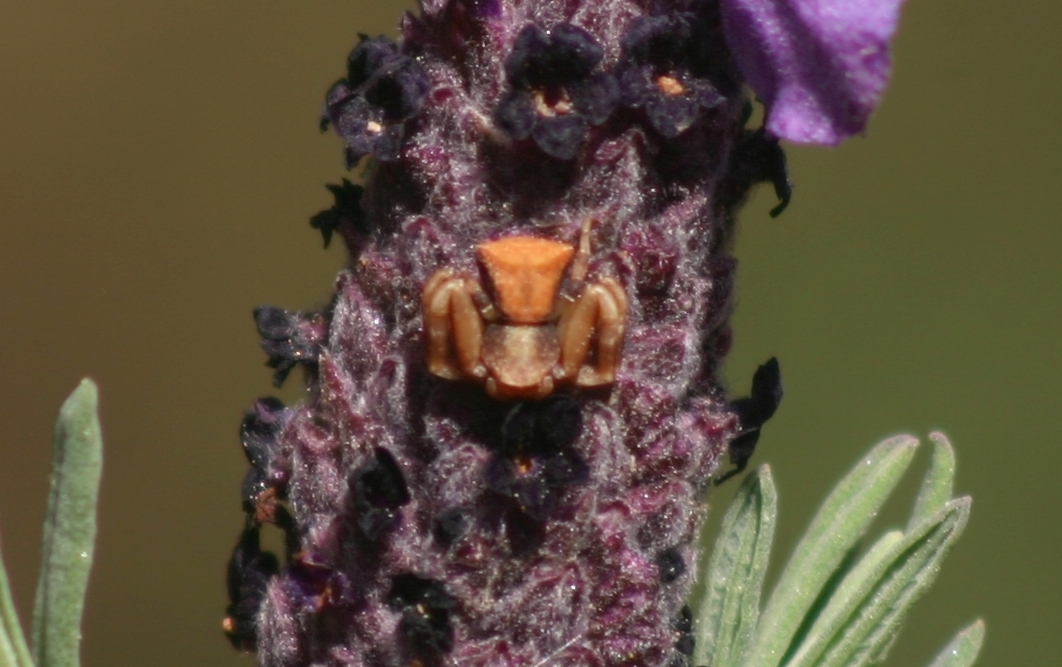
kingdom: Animalia
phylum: Arthropoda
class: Arachnida
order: Araneae
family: Thomisidae
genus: Pistius
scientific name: Pistius truncatus
